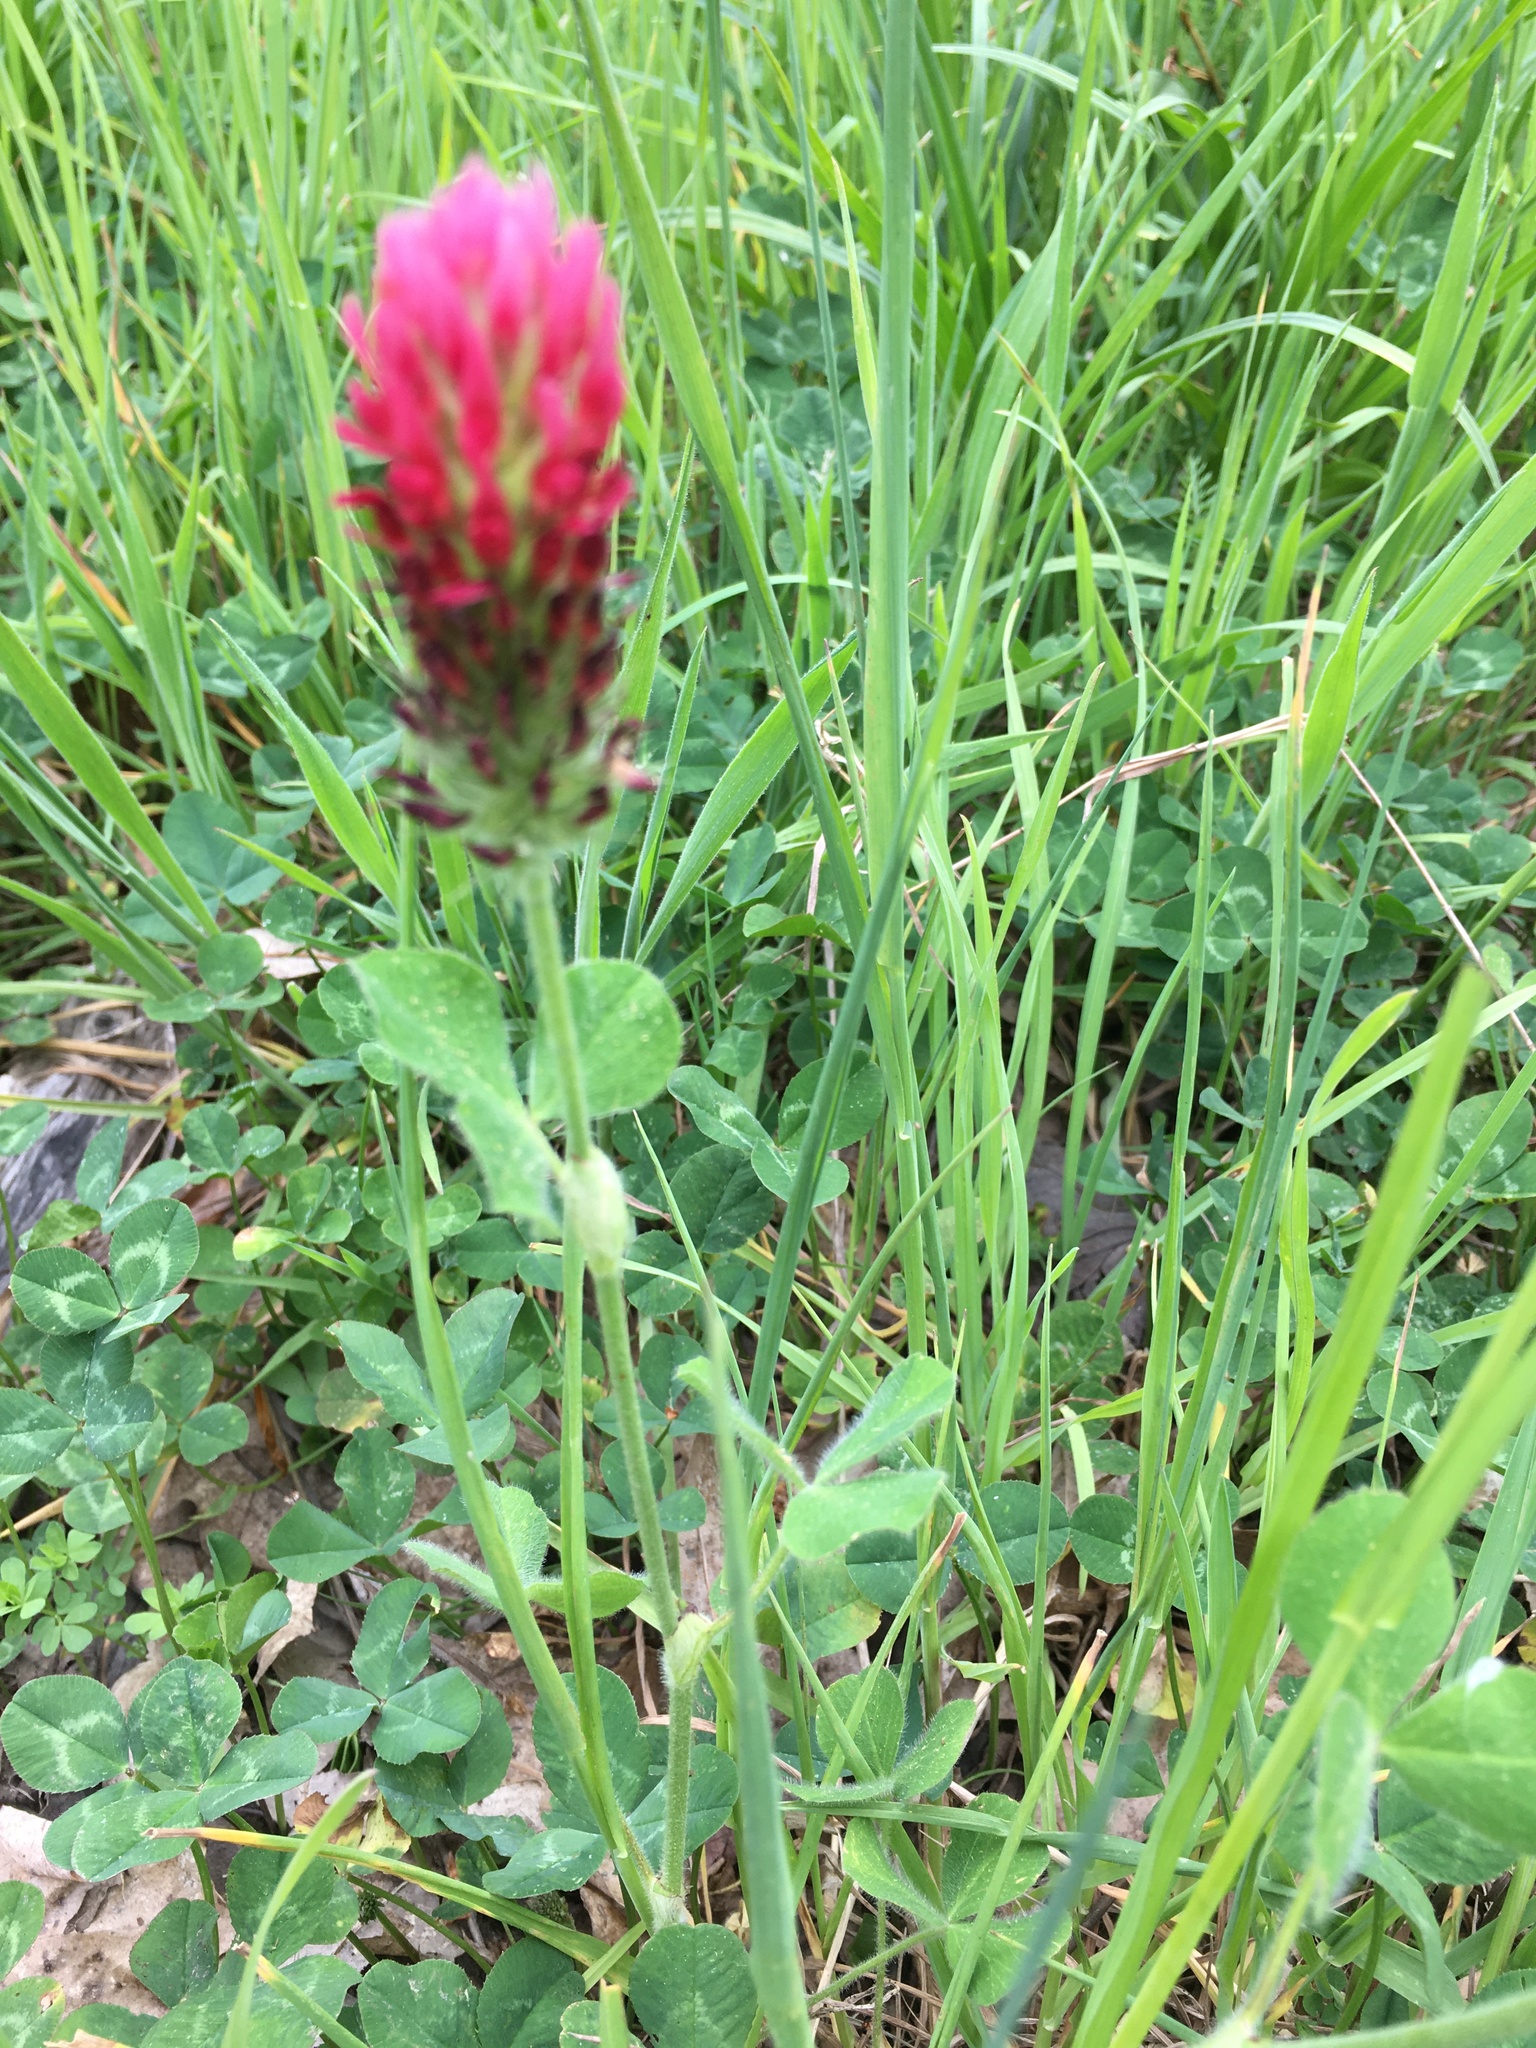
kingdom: Plantae
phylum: Tracheophyta
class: Magnoliopsida
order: Fabales
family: Fabaceae
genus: Trifolium
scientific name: Trifolium incarnatum
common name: Crimson clover
